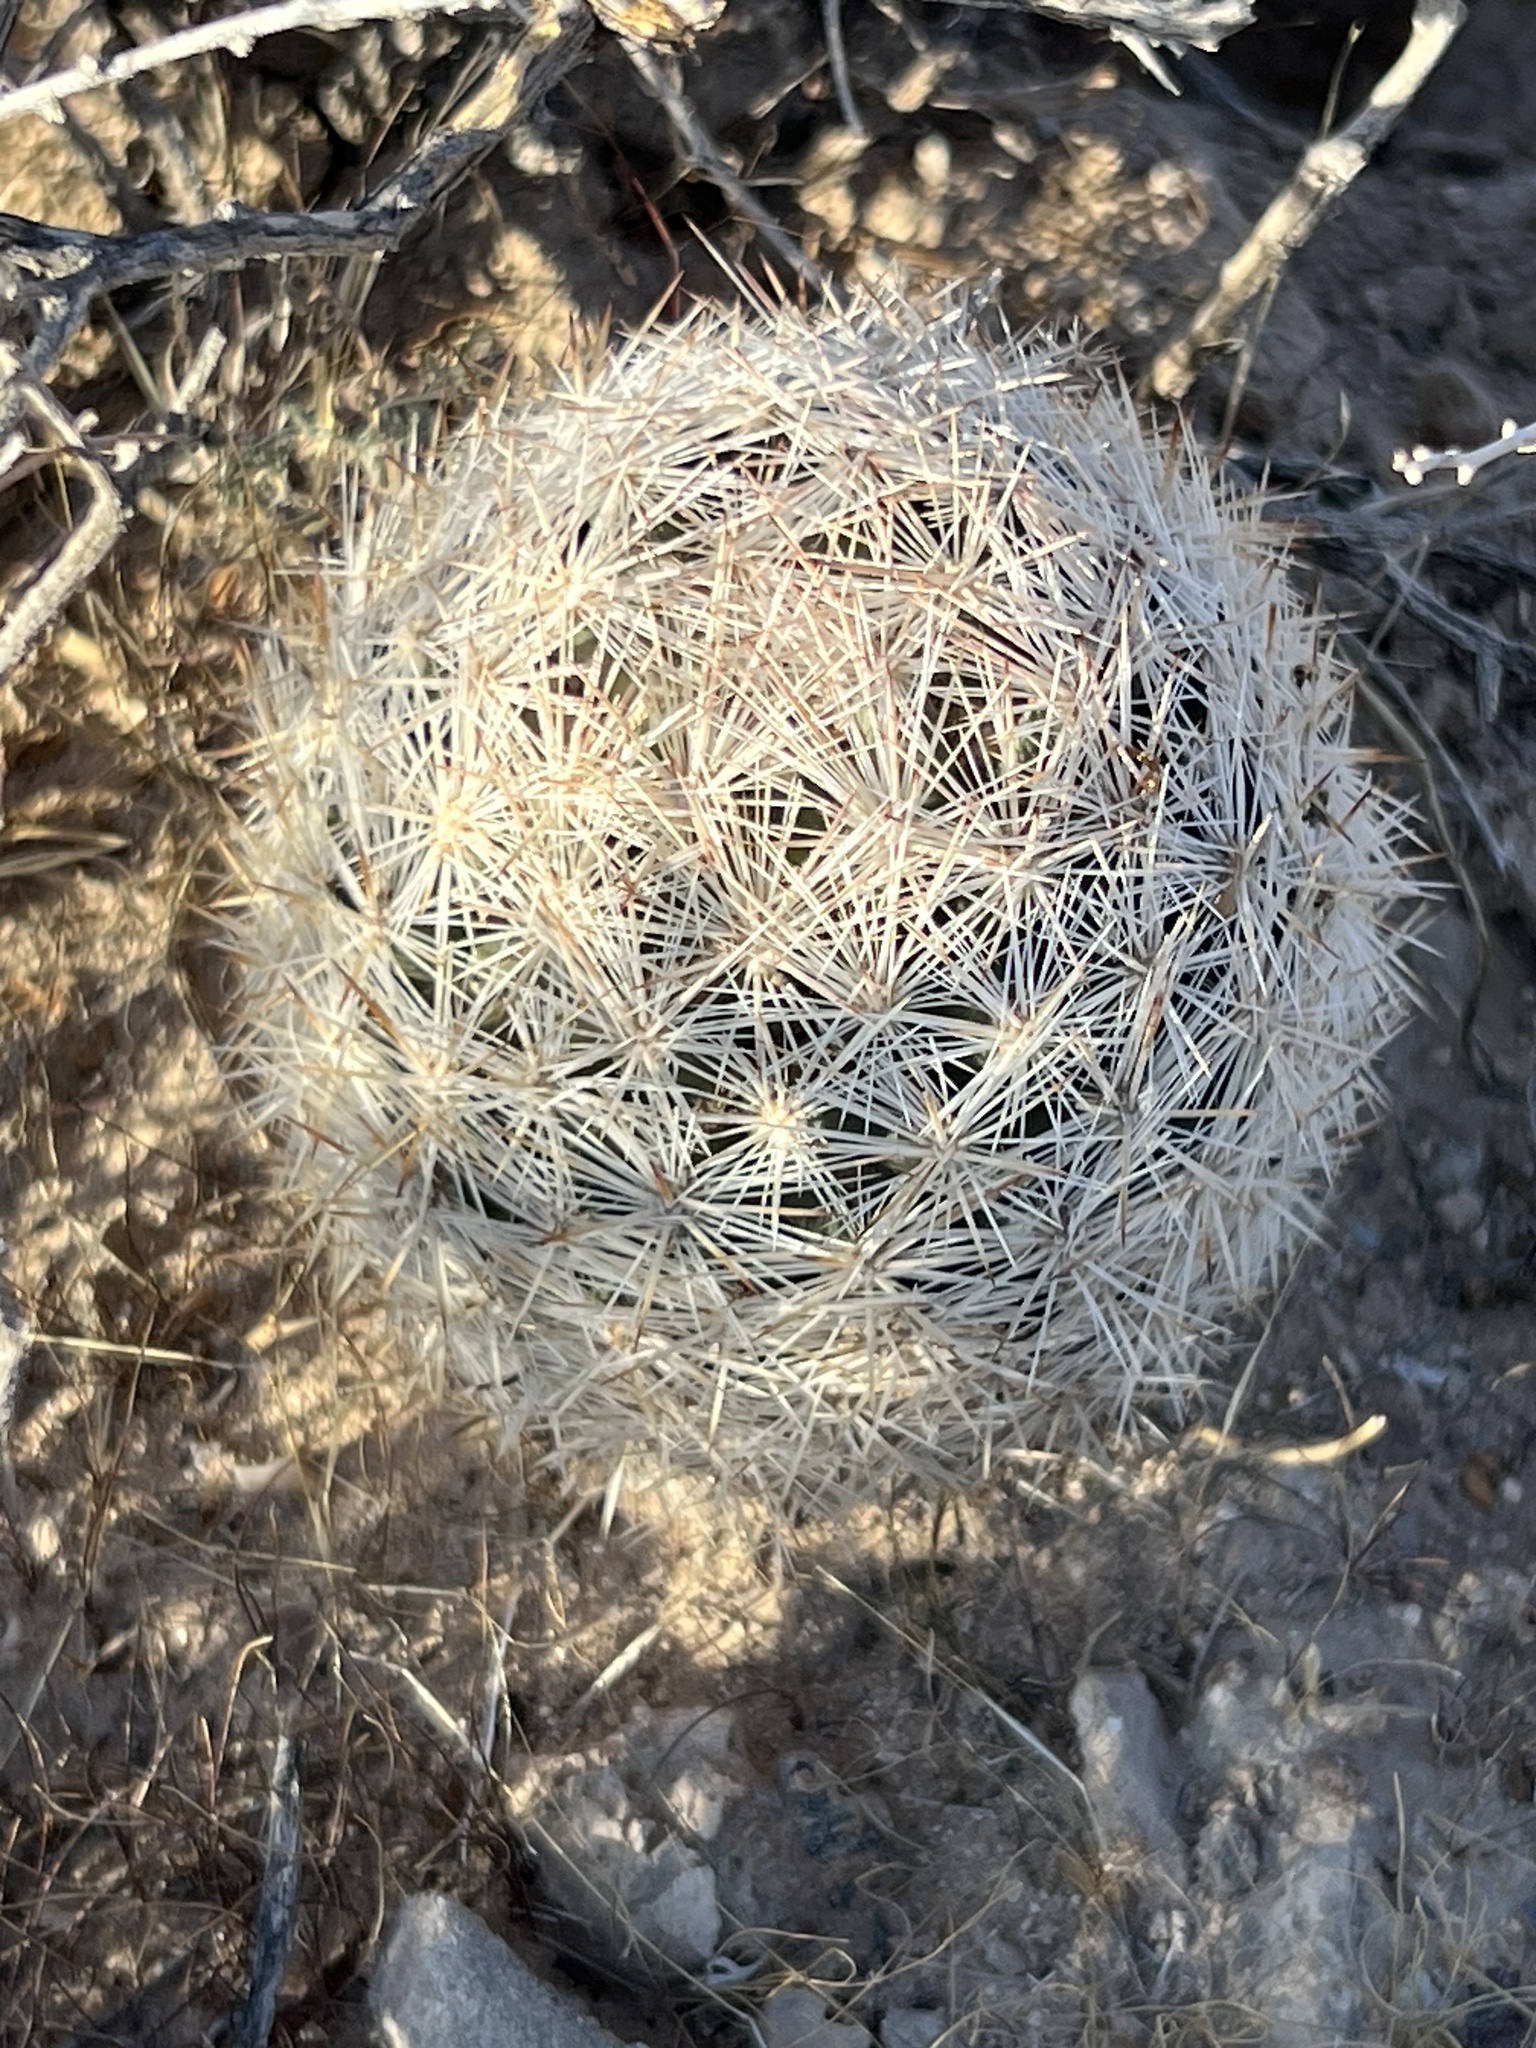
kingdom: Plantae
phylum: Tracheophyta
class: Magnoliopsida
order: Caryophyllales
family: Cactaceae
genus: Pelecyphora
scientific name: Pelecyphora dasyacantha
